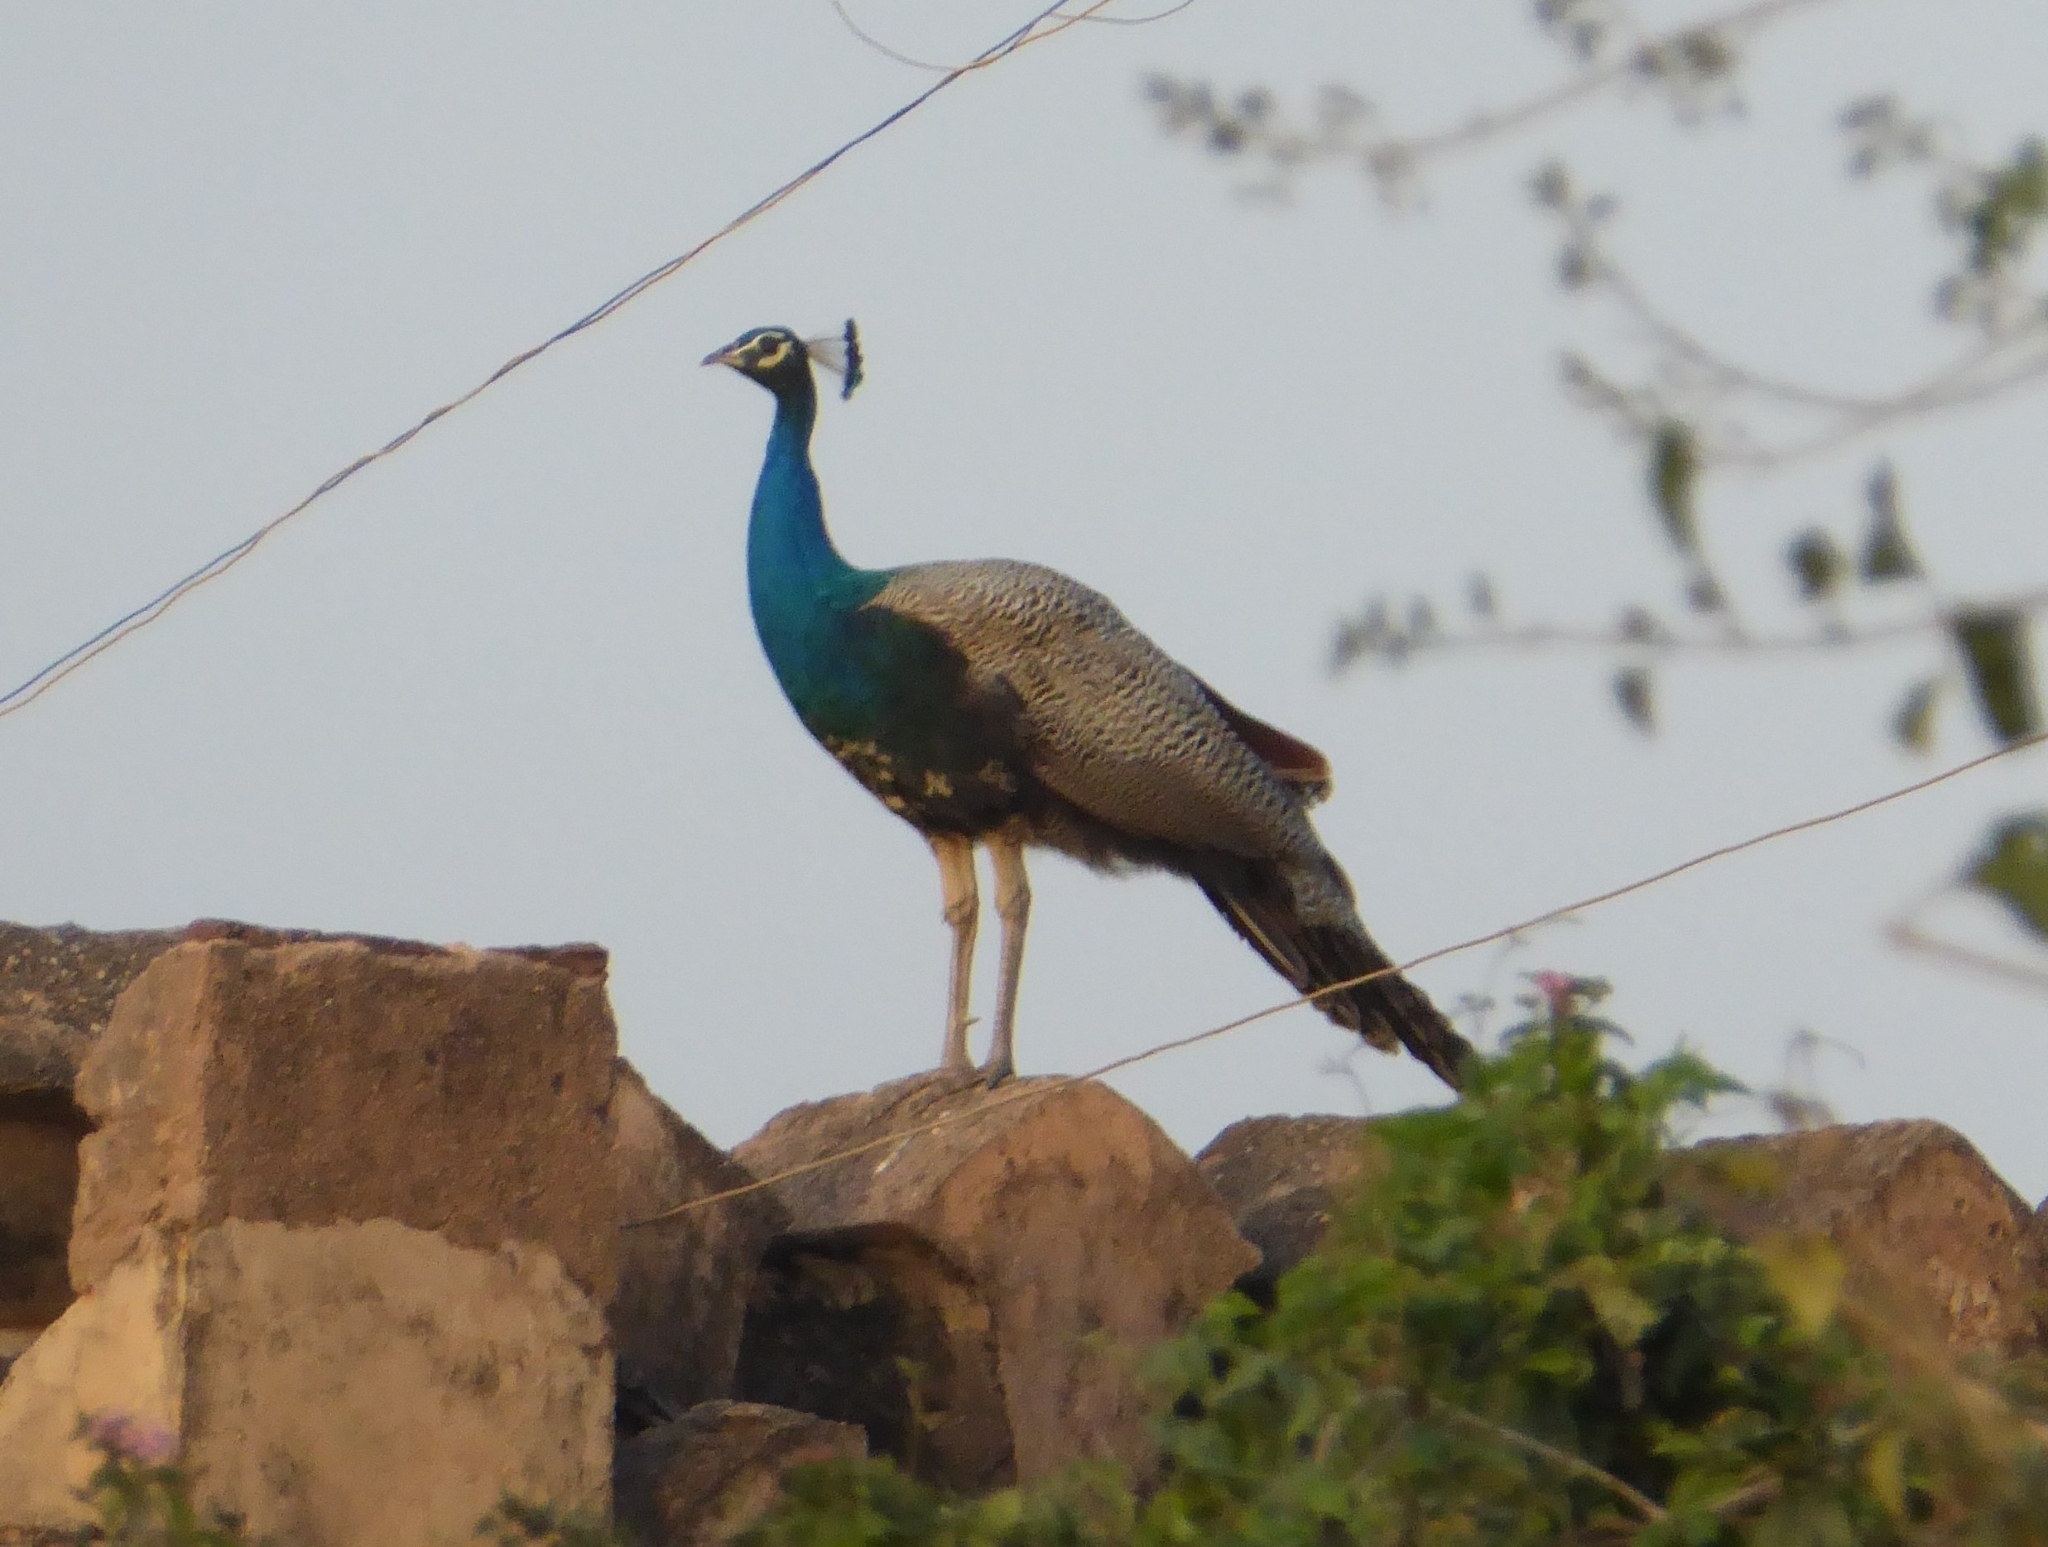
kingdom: Animalia
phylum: Chordata
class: Aves
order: Galliformes
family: Phasianidae
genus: Pavo
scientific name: Pavo cristatus
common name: Indian peafowl
